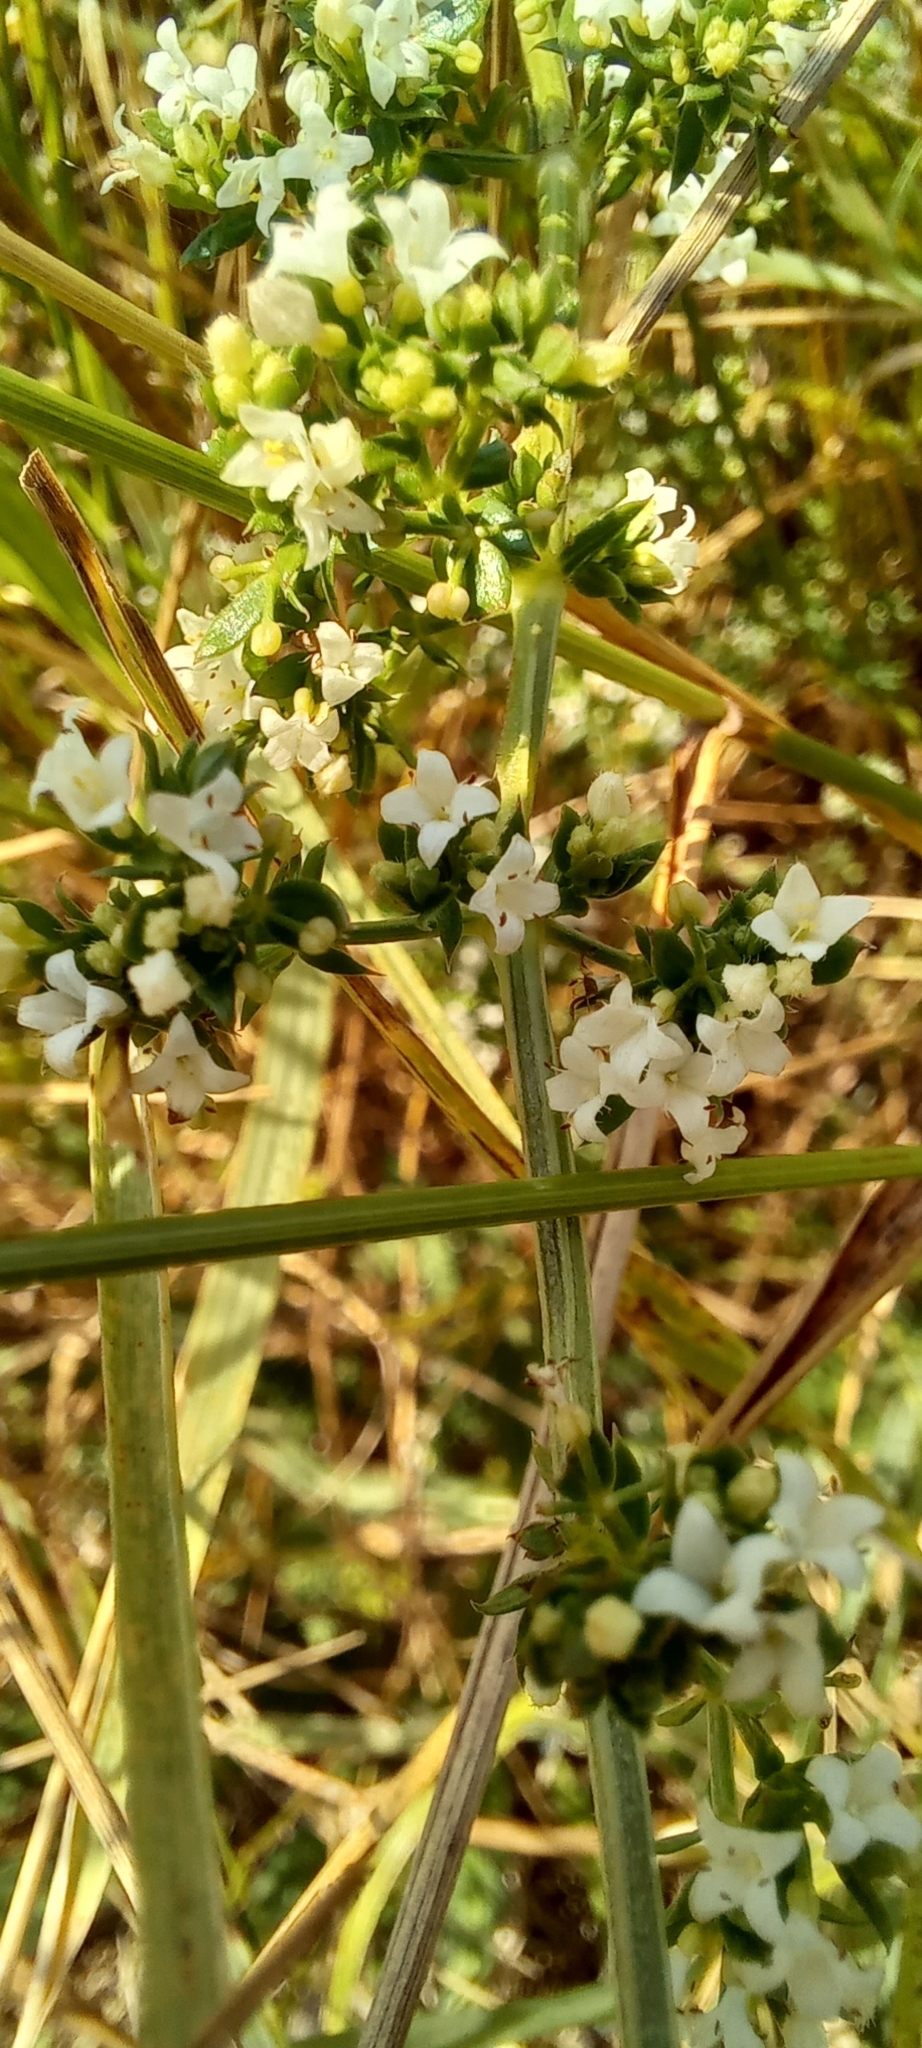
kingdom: Plantae
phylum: Tracheophyta
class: Magnoliopsida
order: Gentianales
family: Rubiaceae
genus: Galium
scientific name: Galium humifusum
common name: Spreading bedstraw
